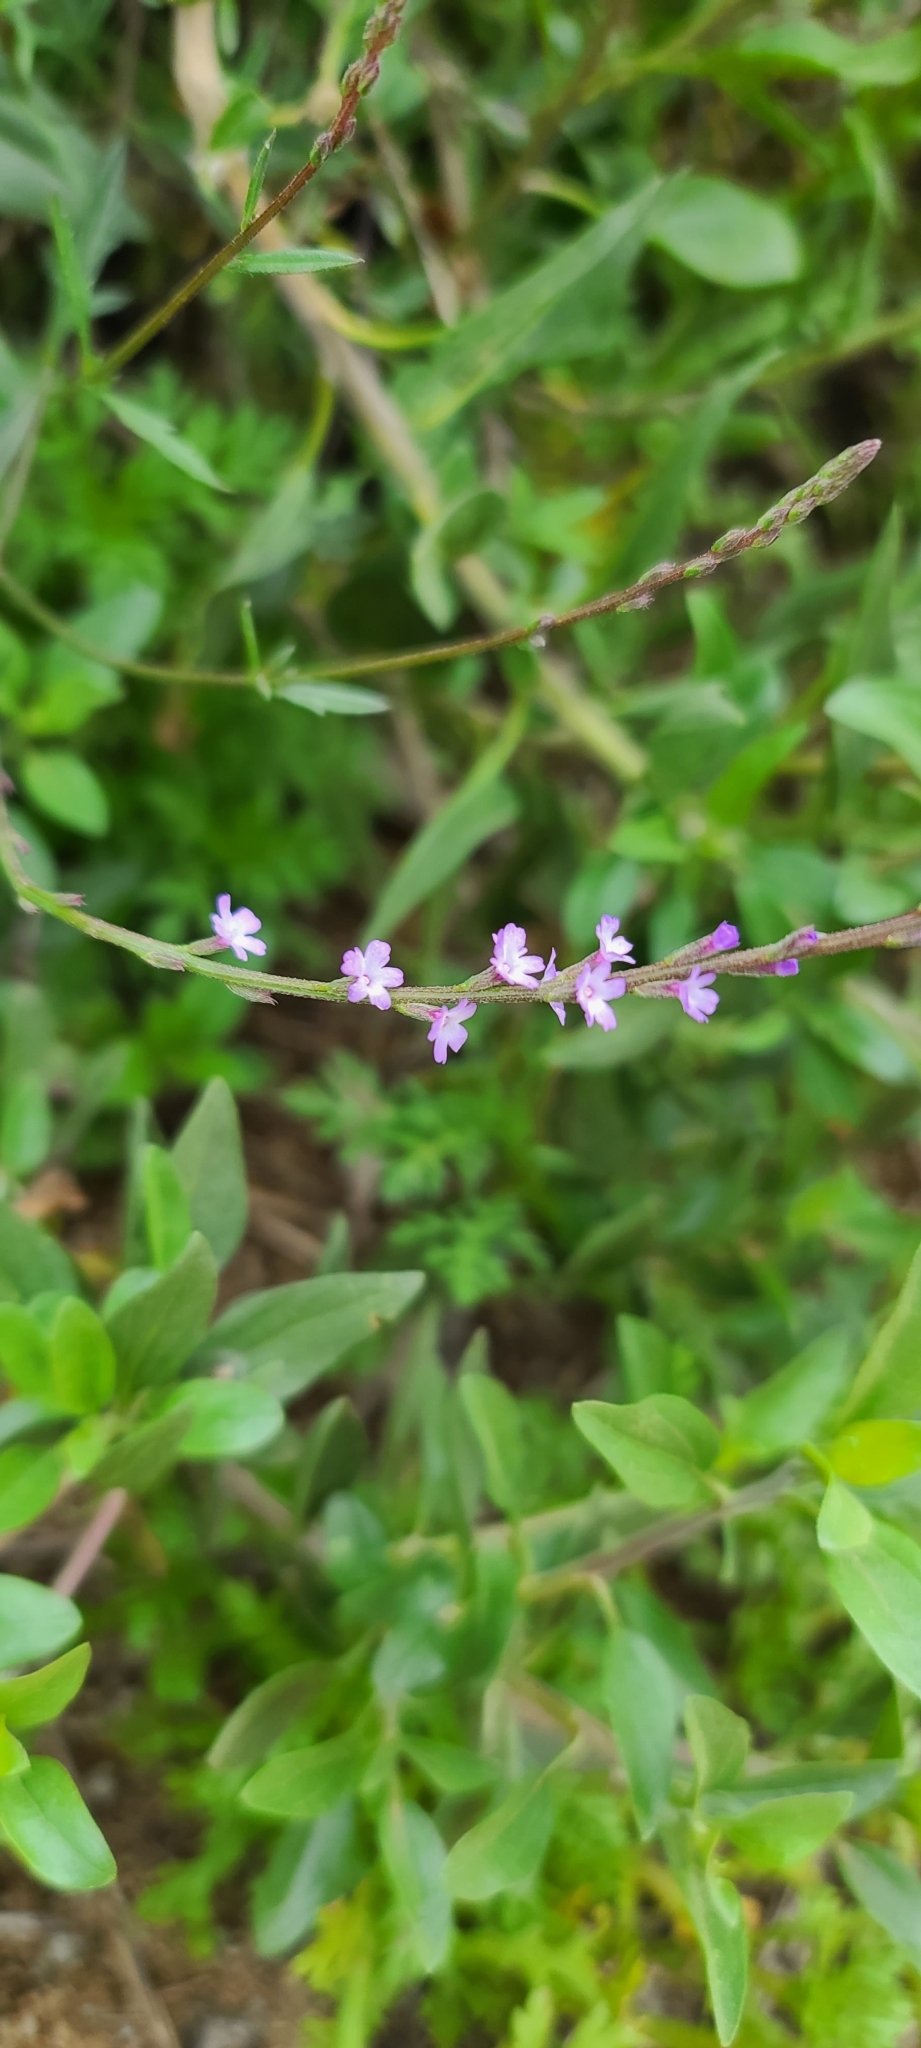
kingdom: Plantae
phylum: Tracheophyta
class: Magnoliopsida
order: Lamiales
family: Verbenaceae
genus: Verbena
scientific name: Verbena menthifolia
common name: Mint-leaf vervain
